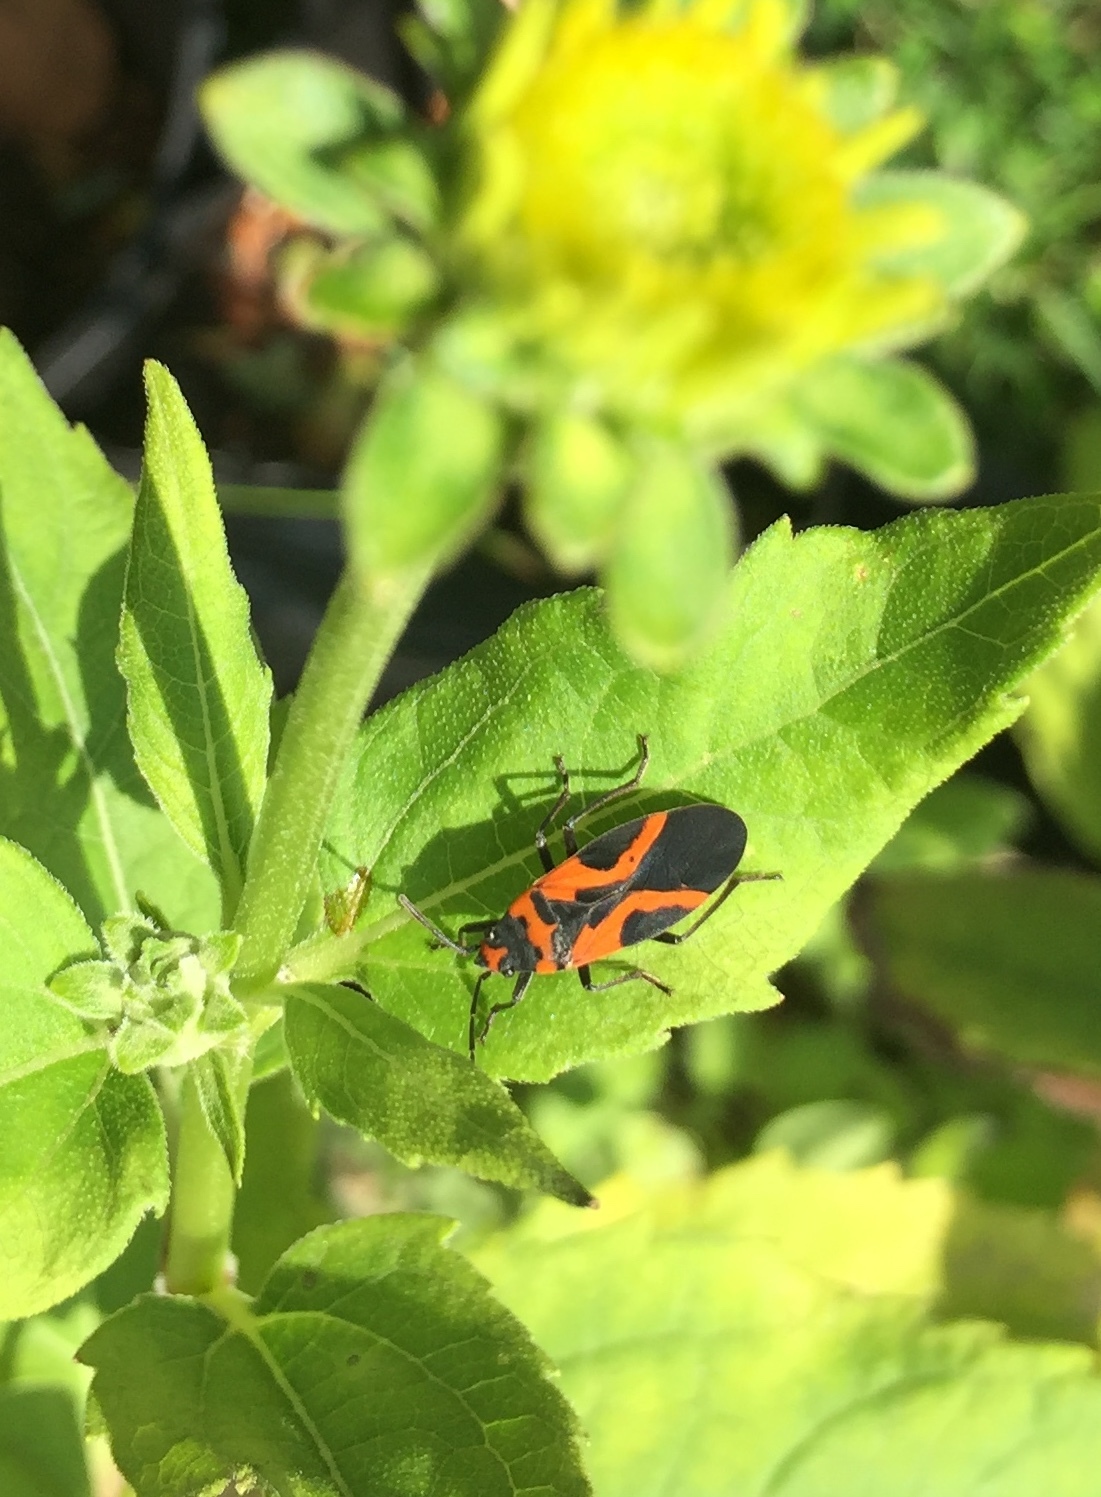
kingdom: Animalia
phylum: Arthropoda
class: Insecta
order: Hemiptera
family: Lygaeidae
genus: Lygaeus
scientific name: Lygaeus turcicus
